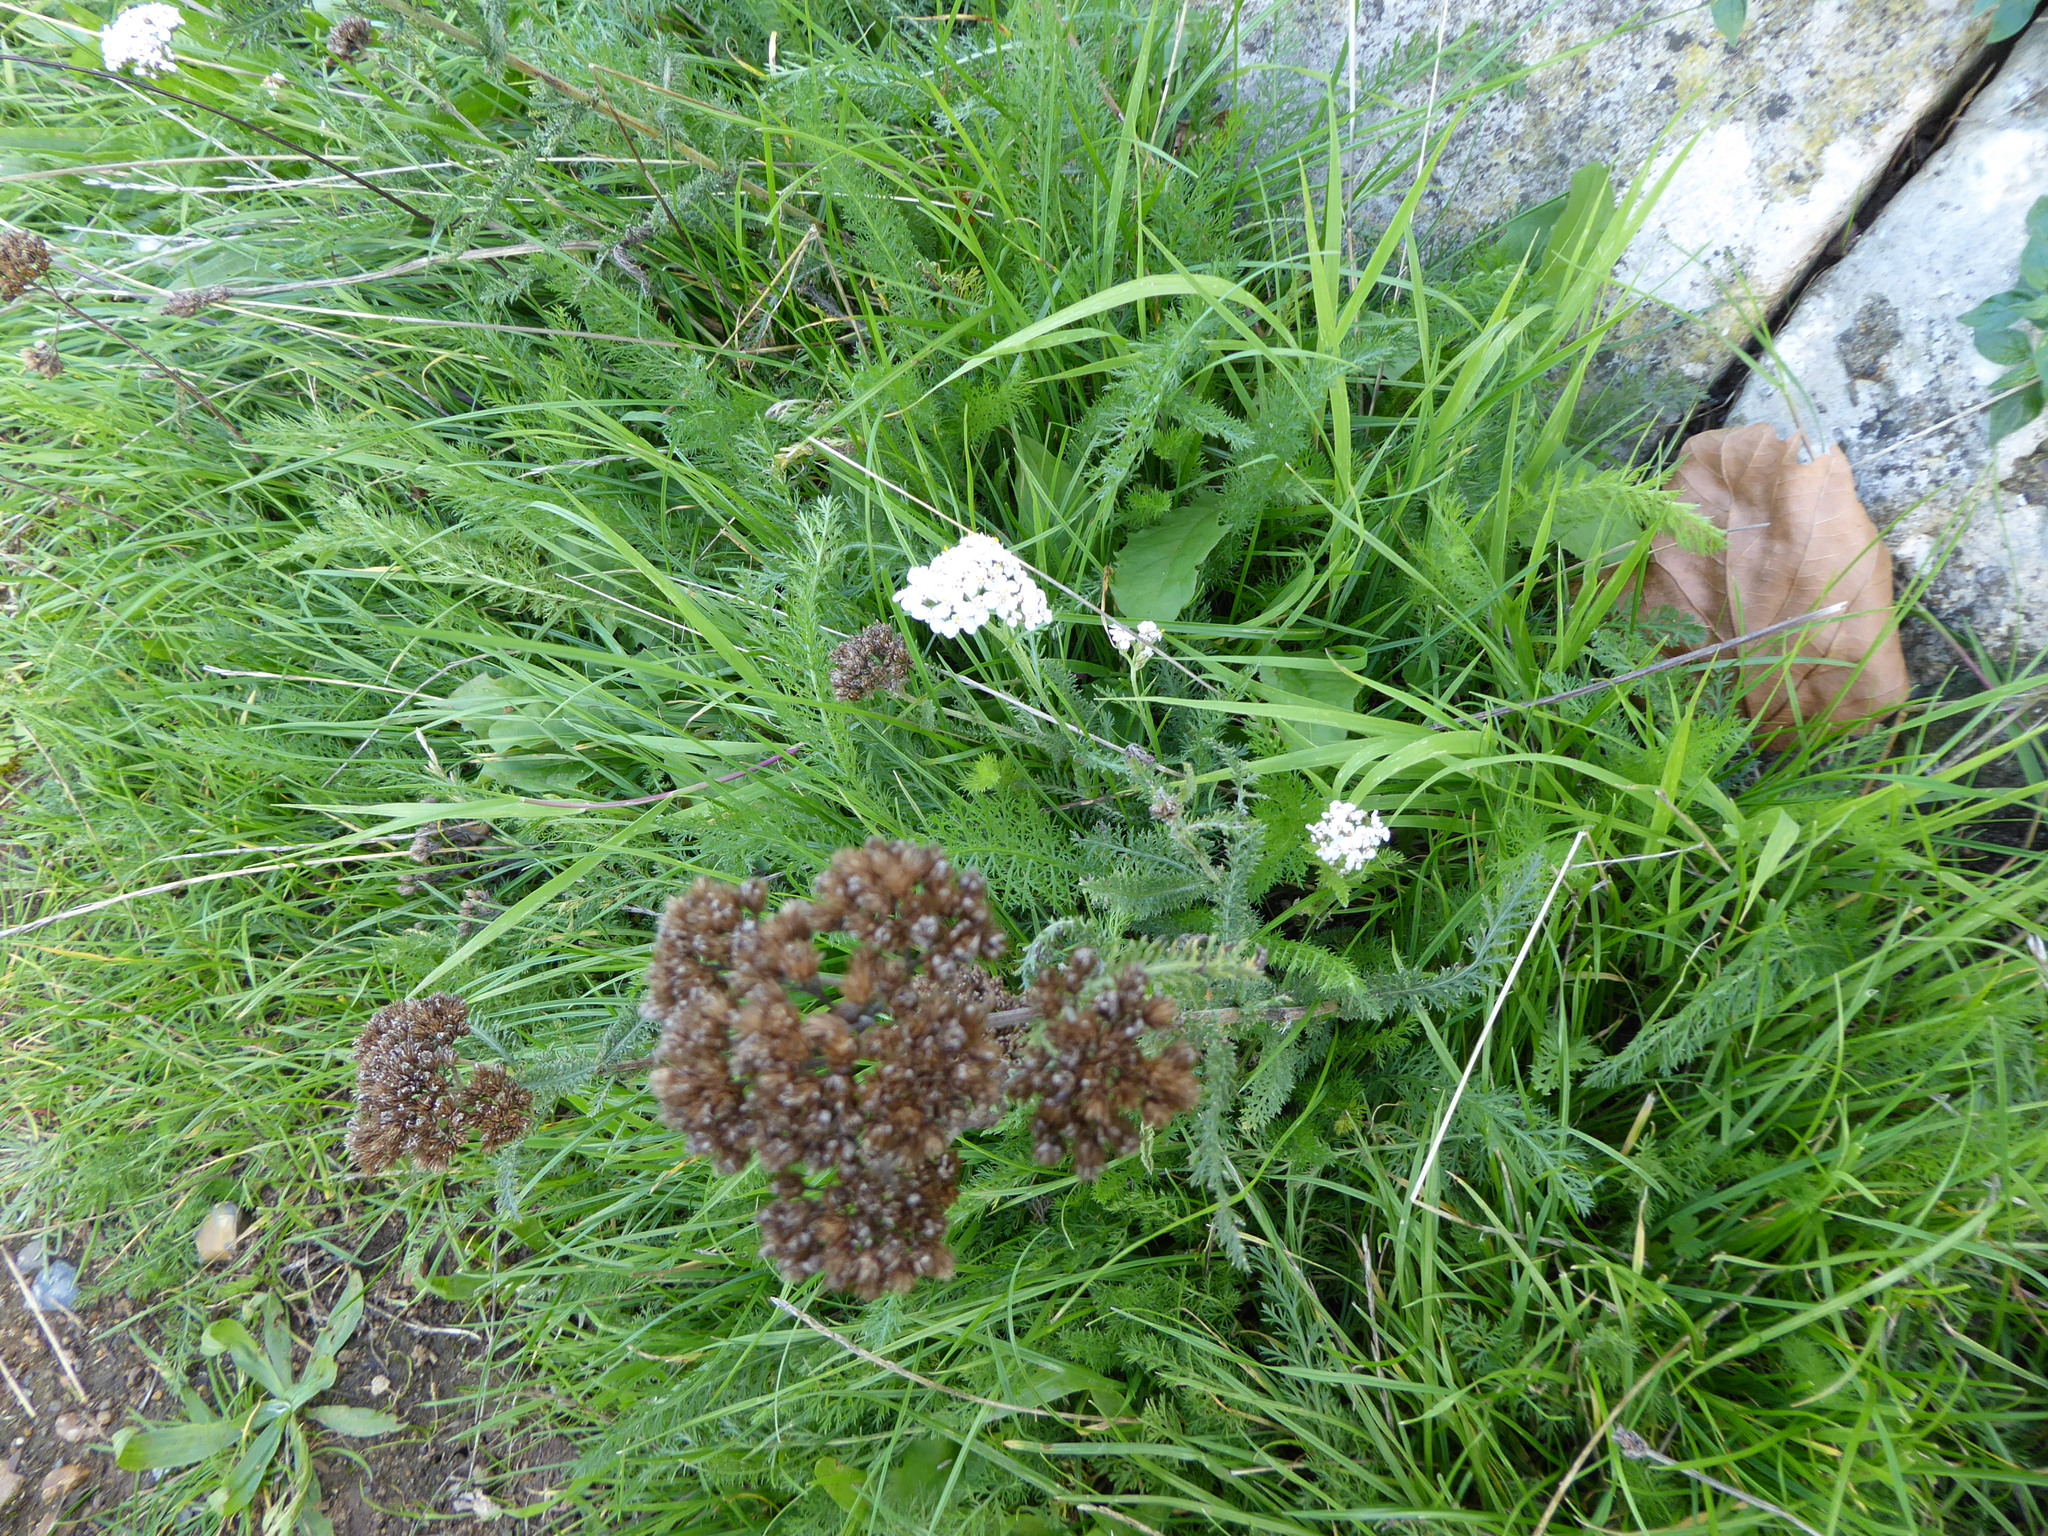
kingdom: Plantae
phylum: Tracheophyta
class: Magnoliopsida
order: Asterales
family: Asteraceae
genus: Achillea
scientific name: Achillea millefolium
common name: Yarrow
